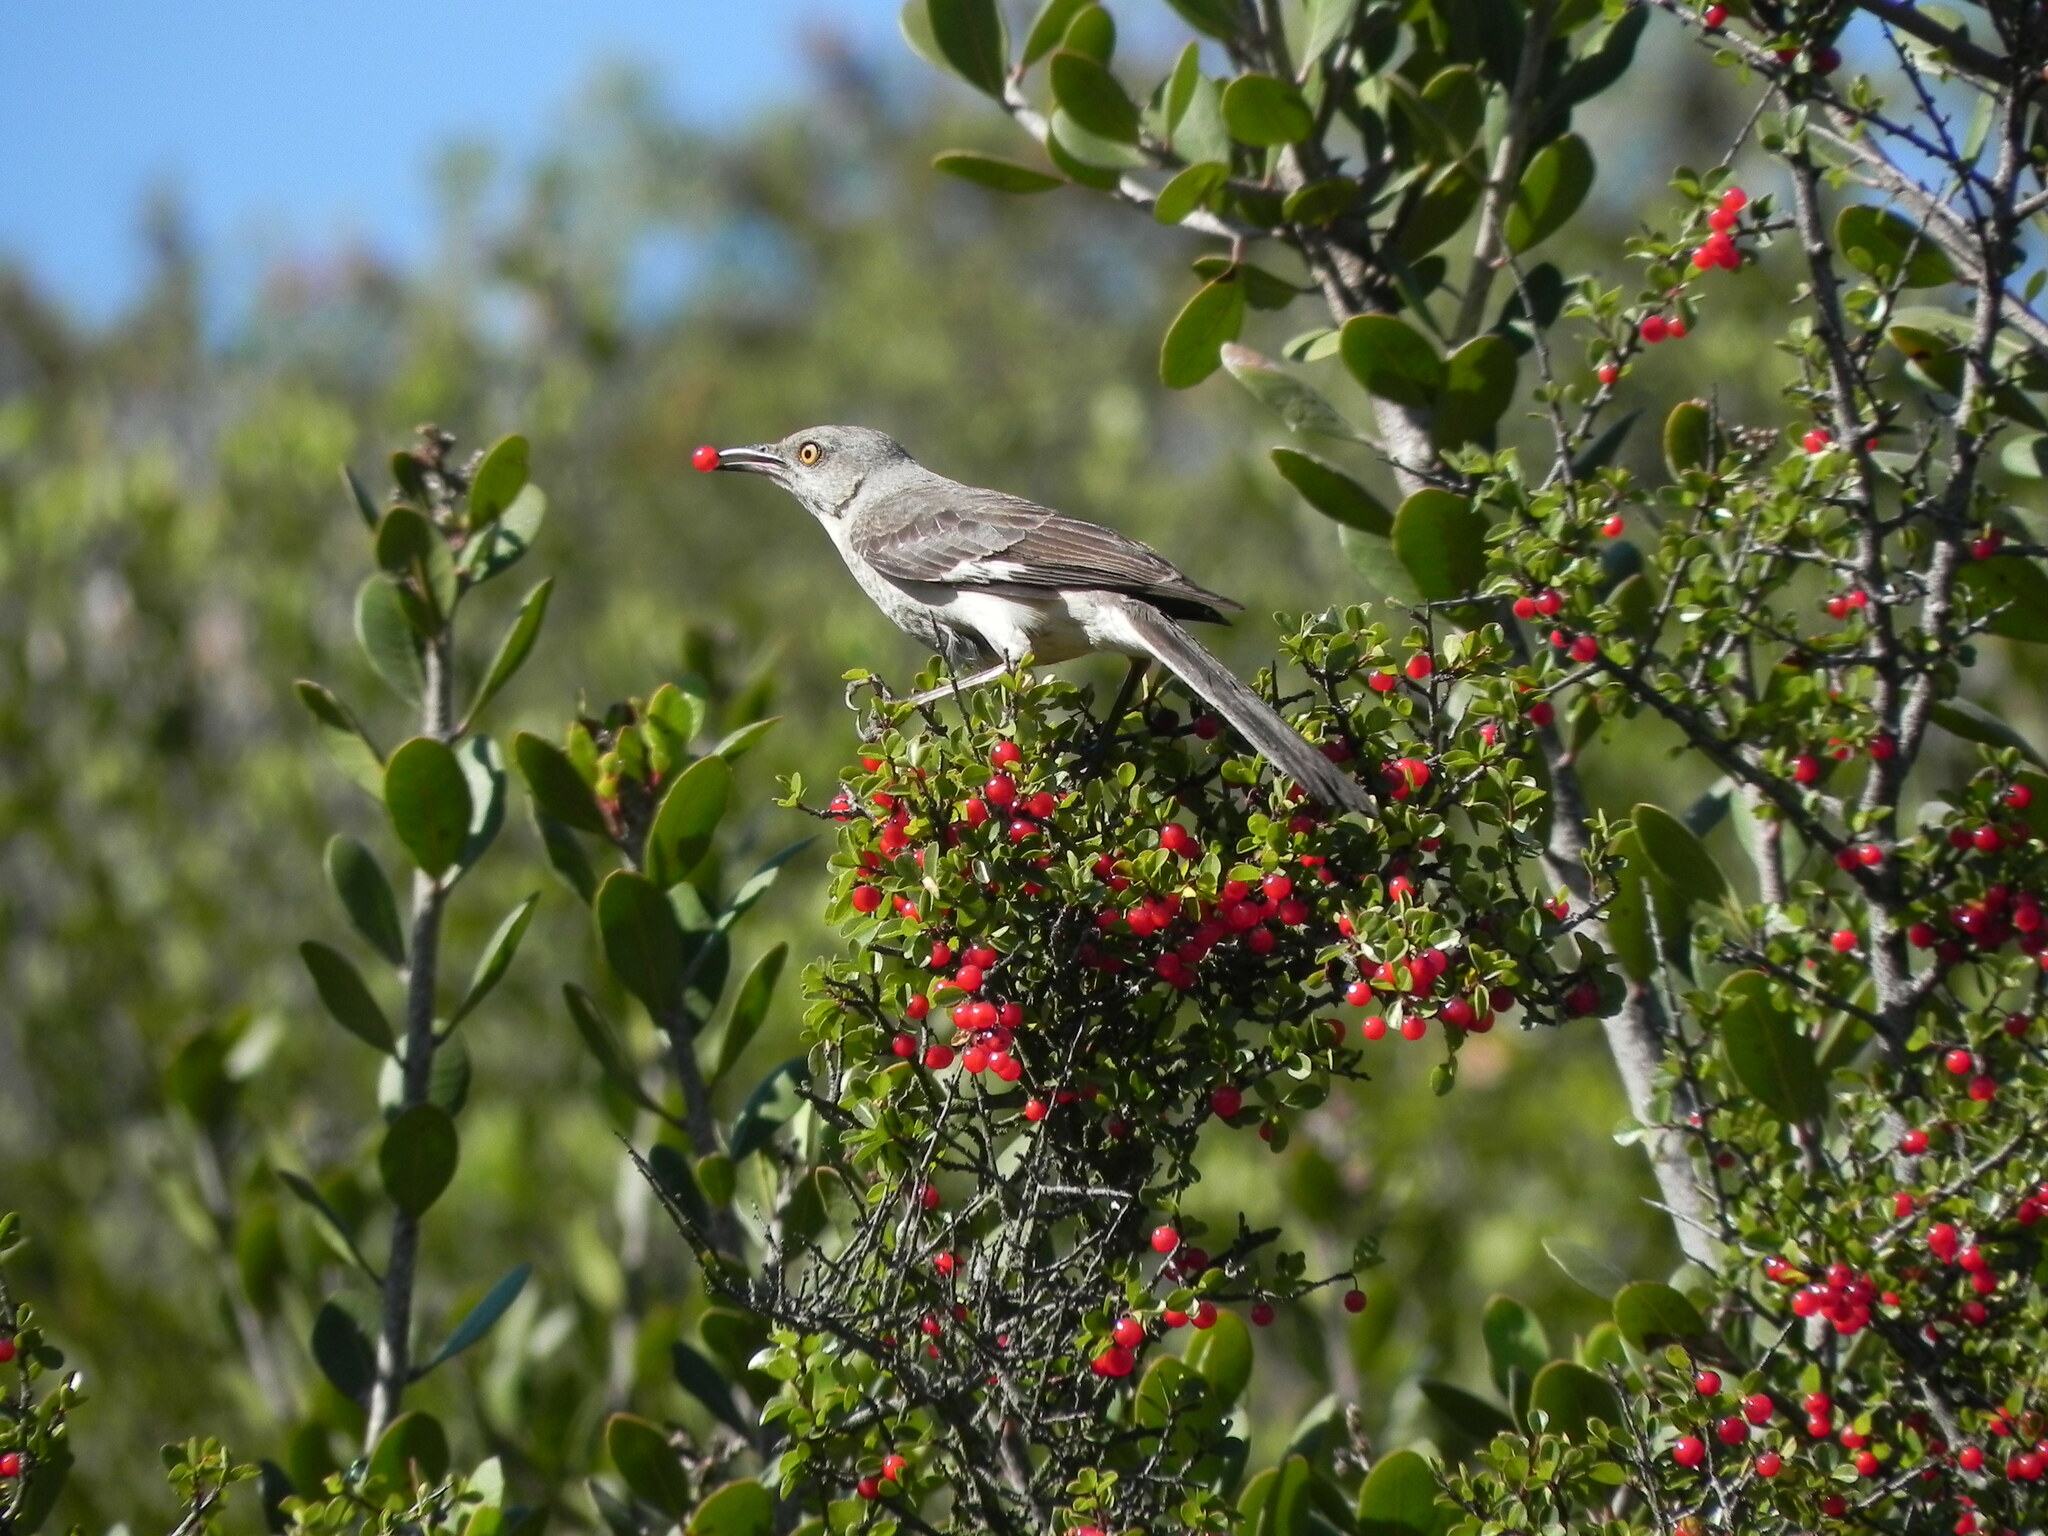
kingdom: Animalia
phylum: Chordata
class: Aves
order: Passeriformes
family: Mimidae
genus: Mimus
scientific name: Mimus polyglottos
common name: Northern mockingbird
